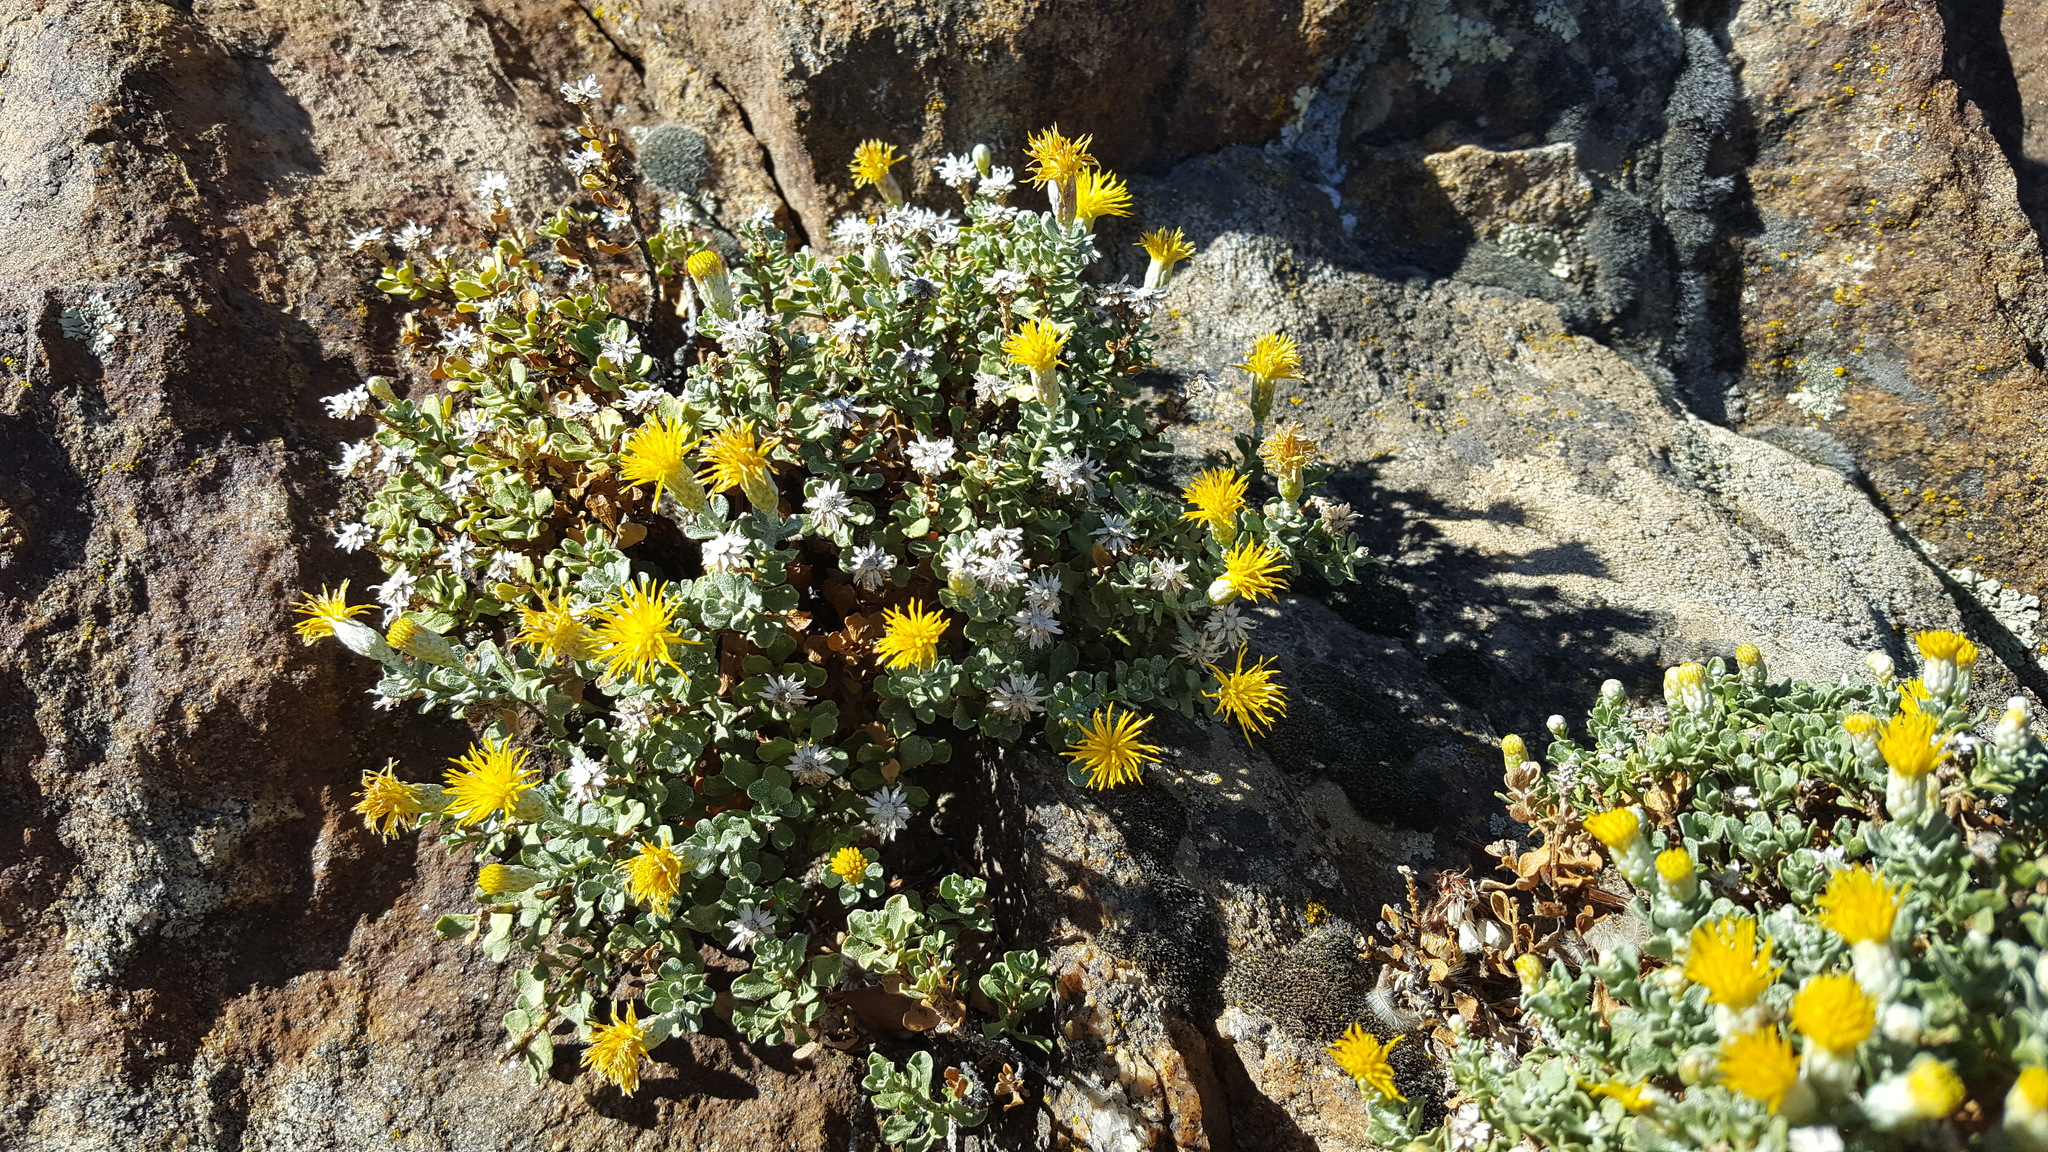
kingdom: Plantae
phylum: Tracheophyta
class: Magnoliopsida
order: Asterales
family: Asteraceae
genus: Ericameria
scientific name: Ericameria cuneata
